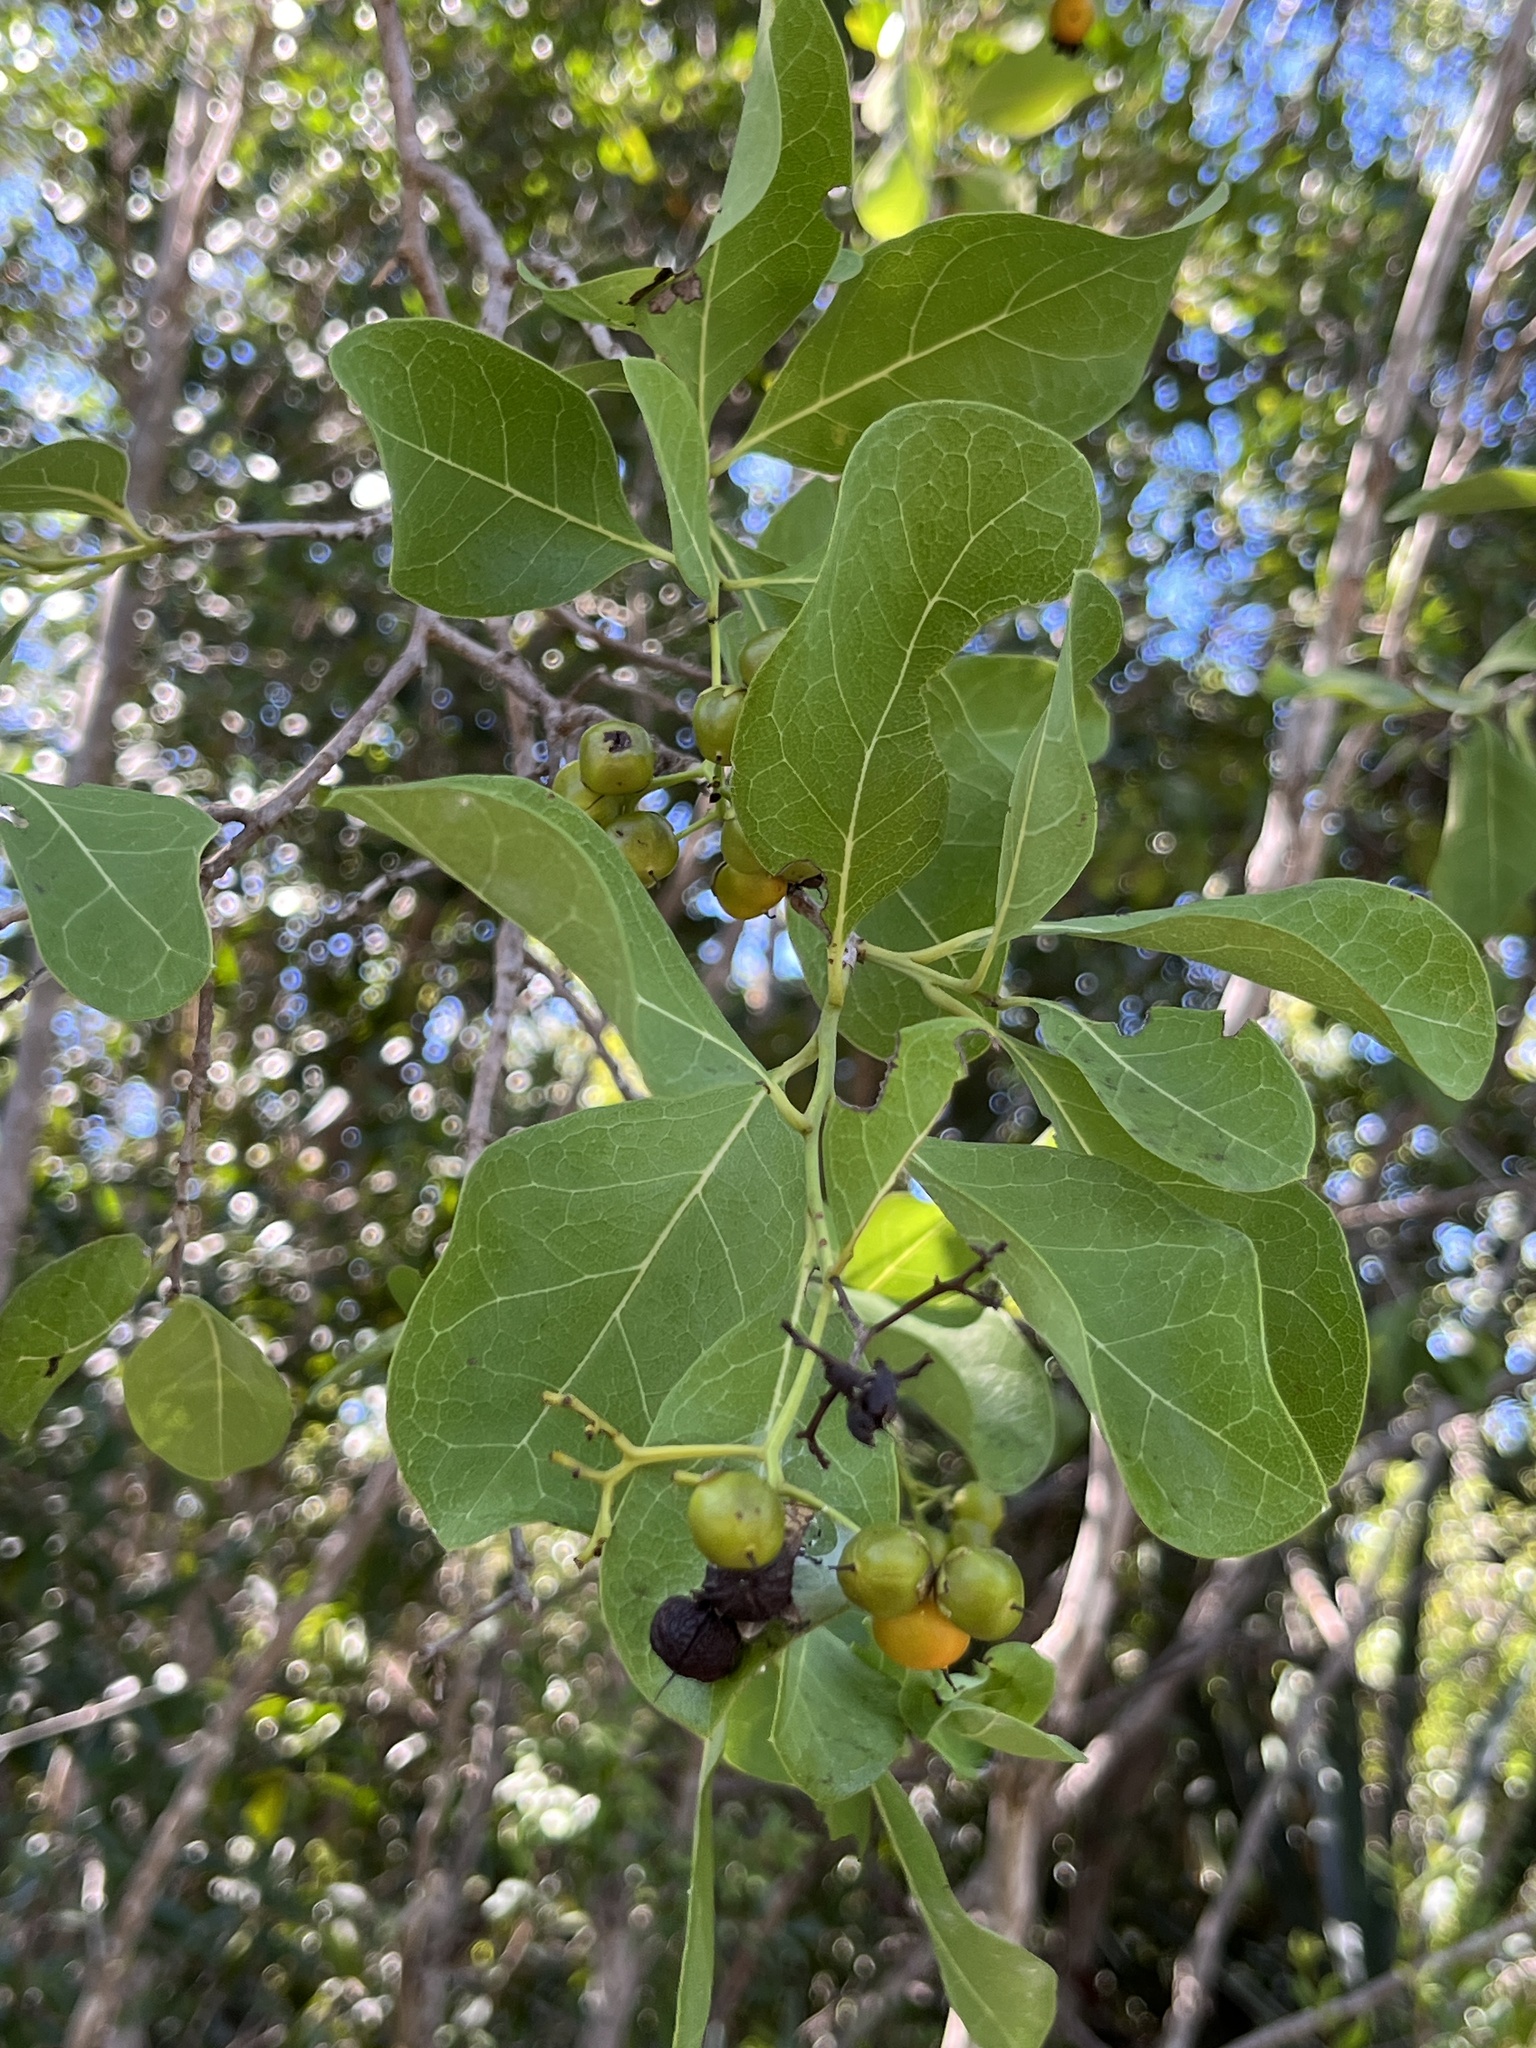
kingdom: Plantae
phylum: Tracheophyta
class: Magnoliopsida
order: Boraginales
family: Ehretiaceae
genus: Bourreria
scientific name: Bourreria succulenta
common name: Cherry
